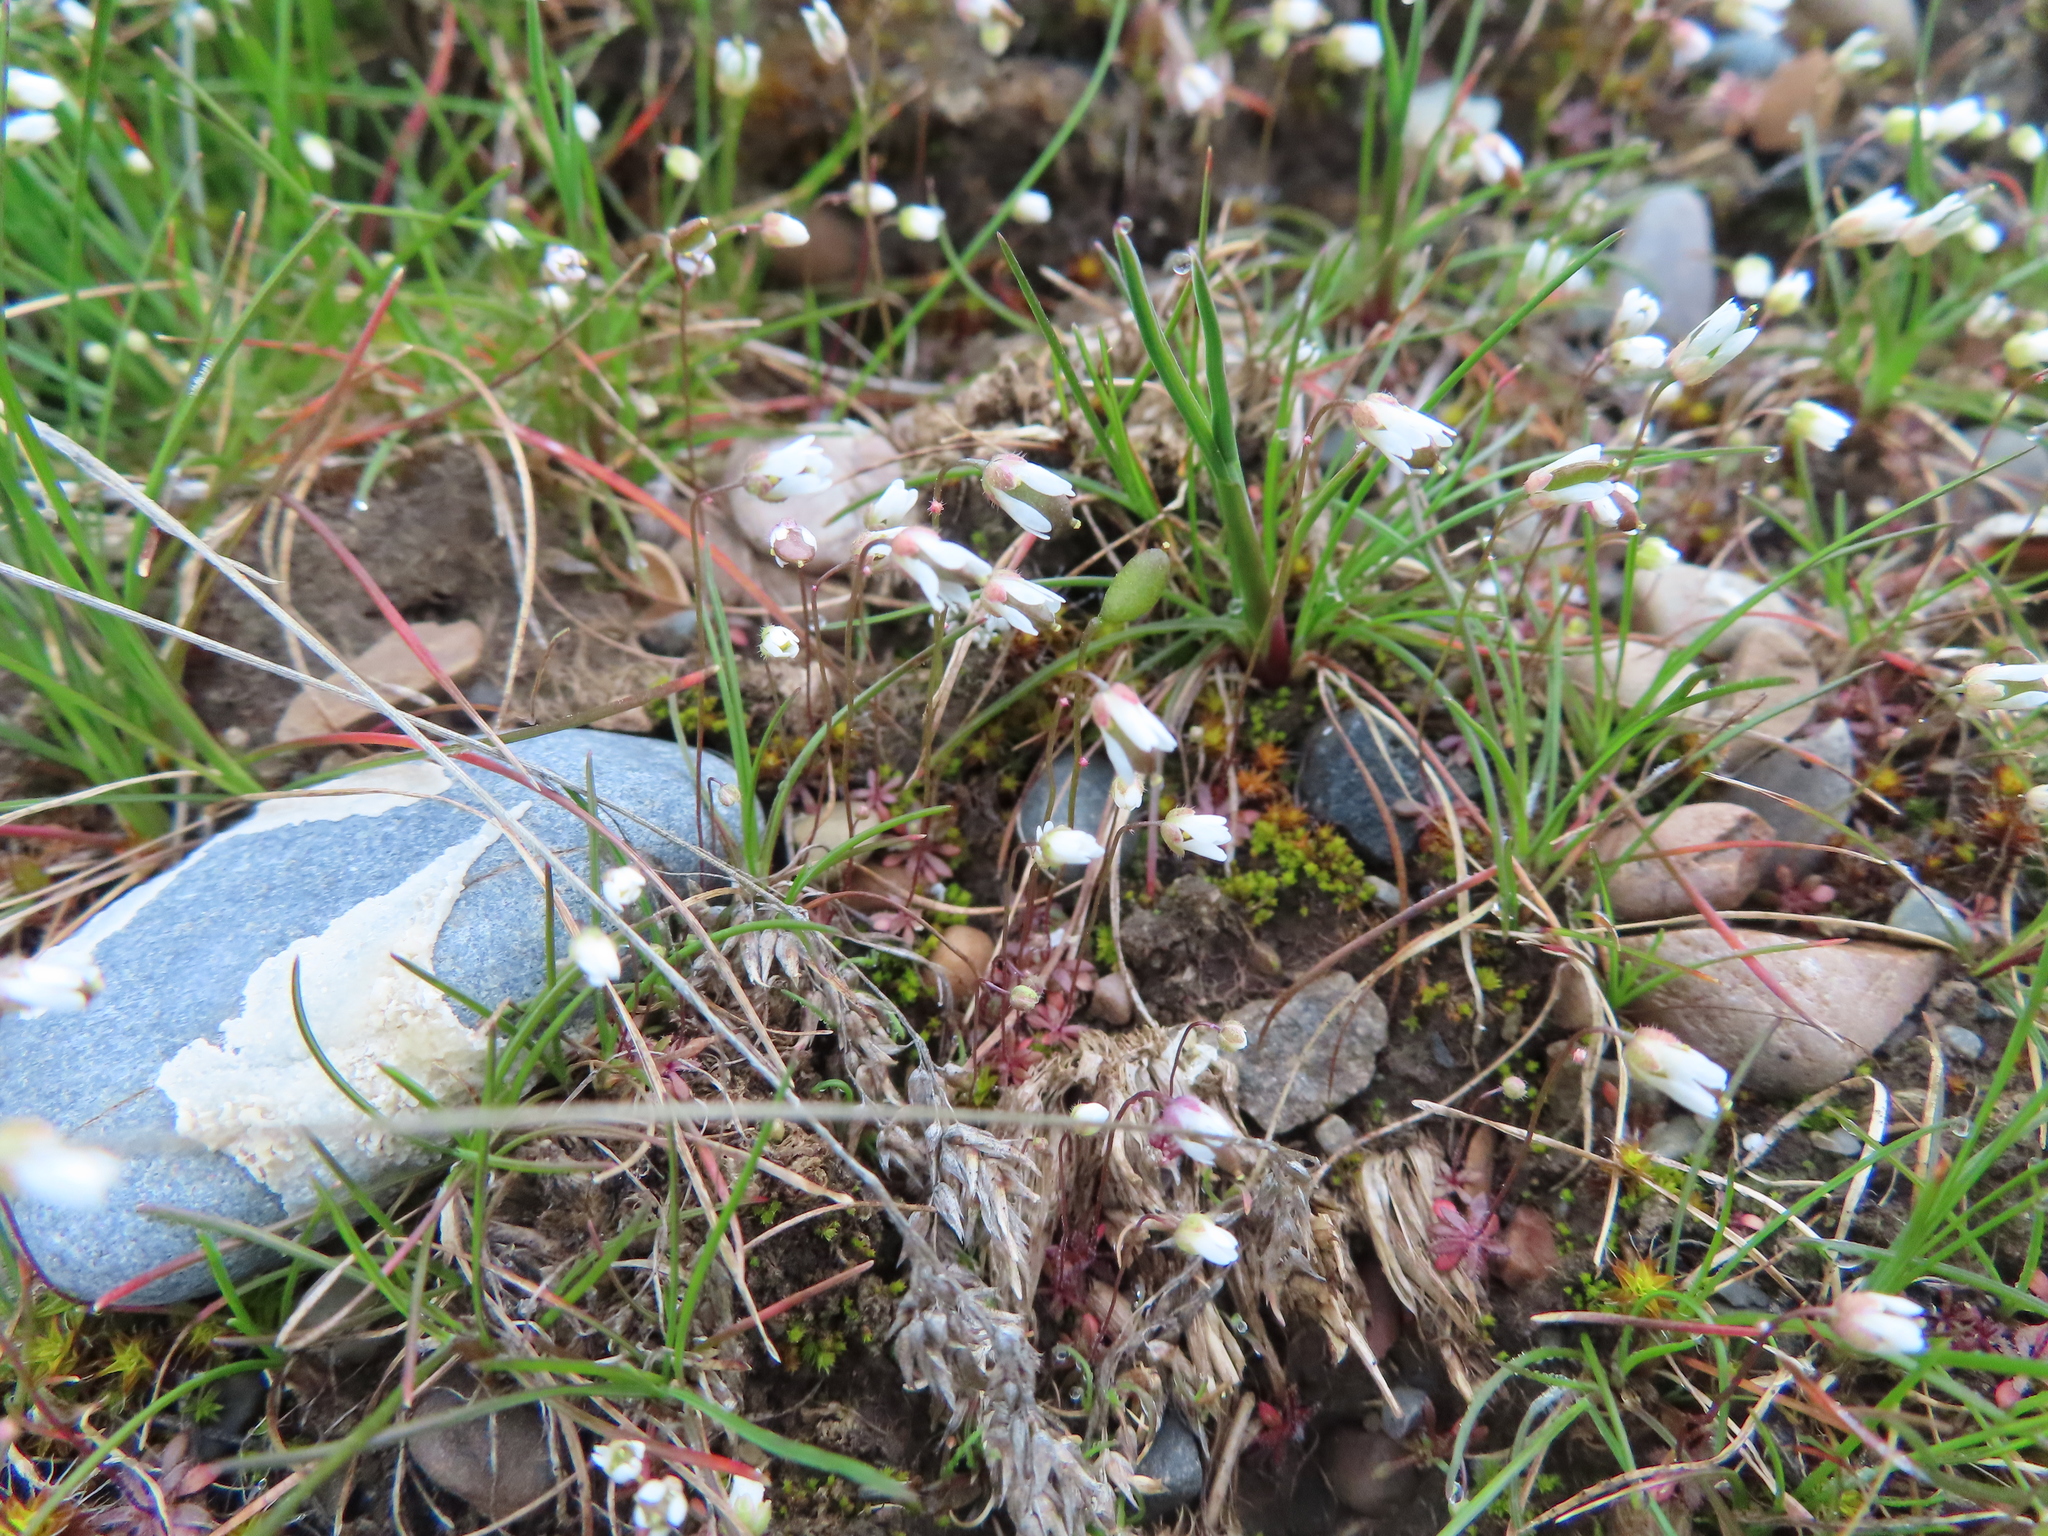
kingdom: Plantae
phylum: Tracheophyta
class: Magnoliopsida
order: Brassicales
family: Brassicaceae
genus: Draba
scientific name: Draba verna
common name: Spring draba
